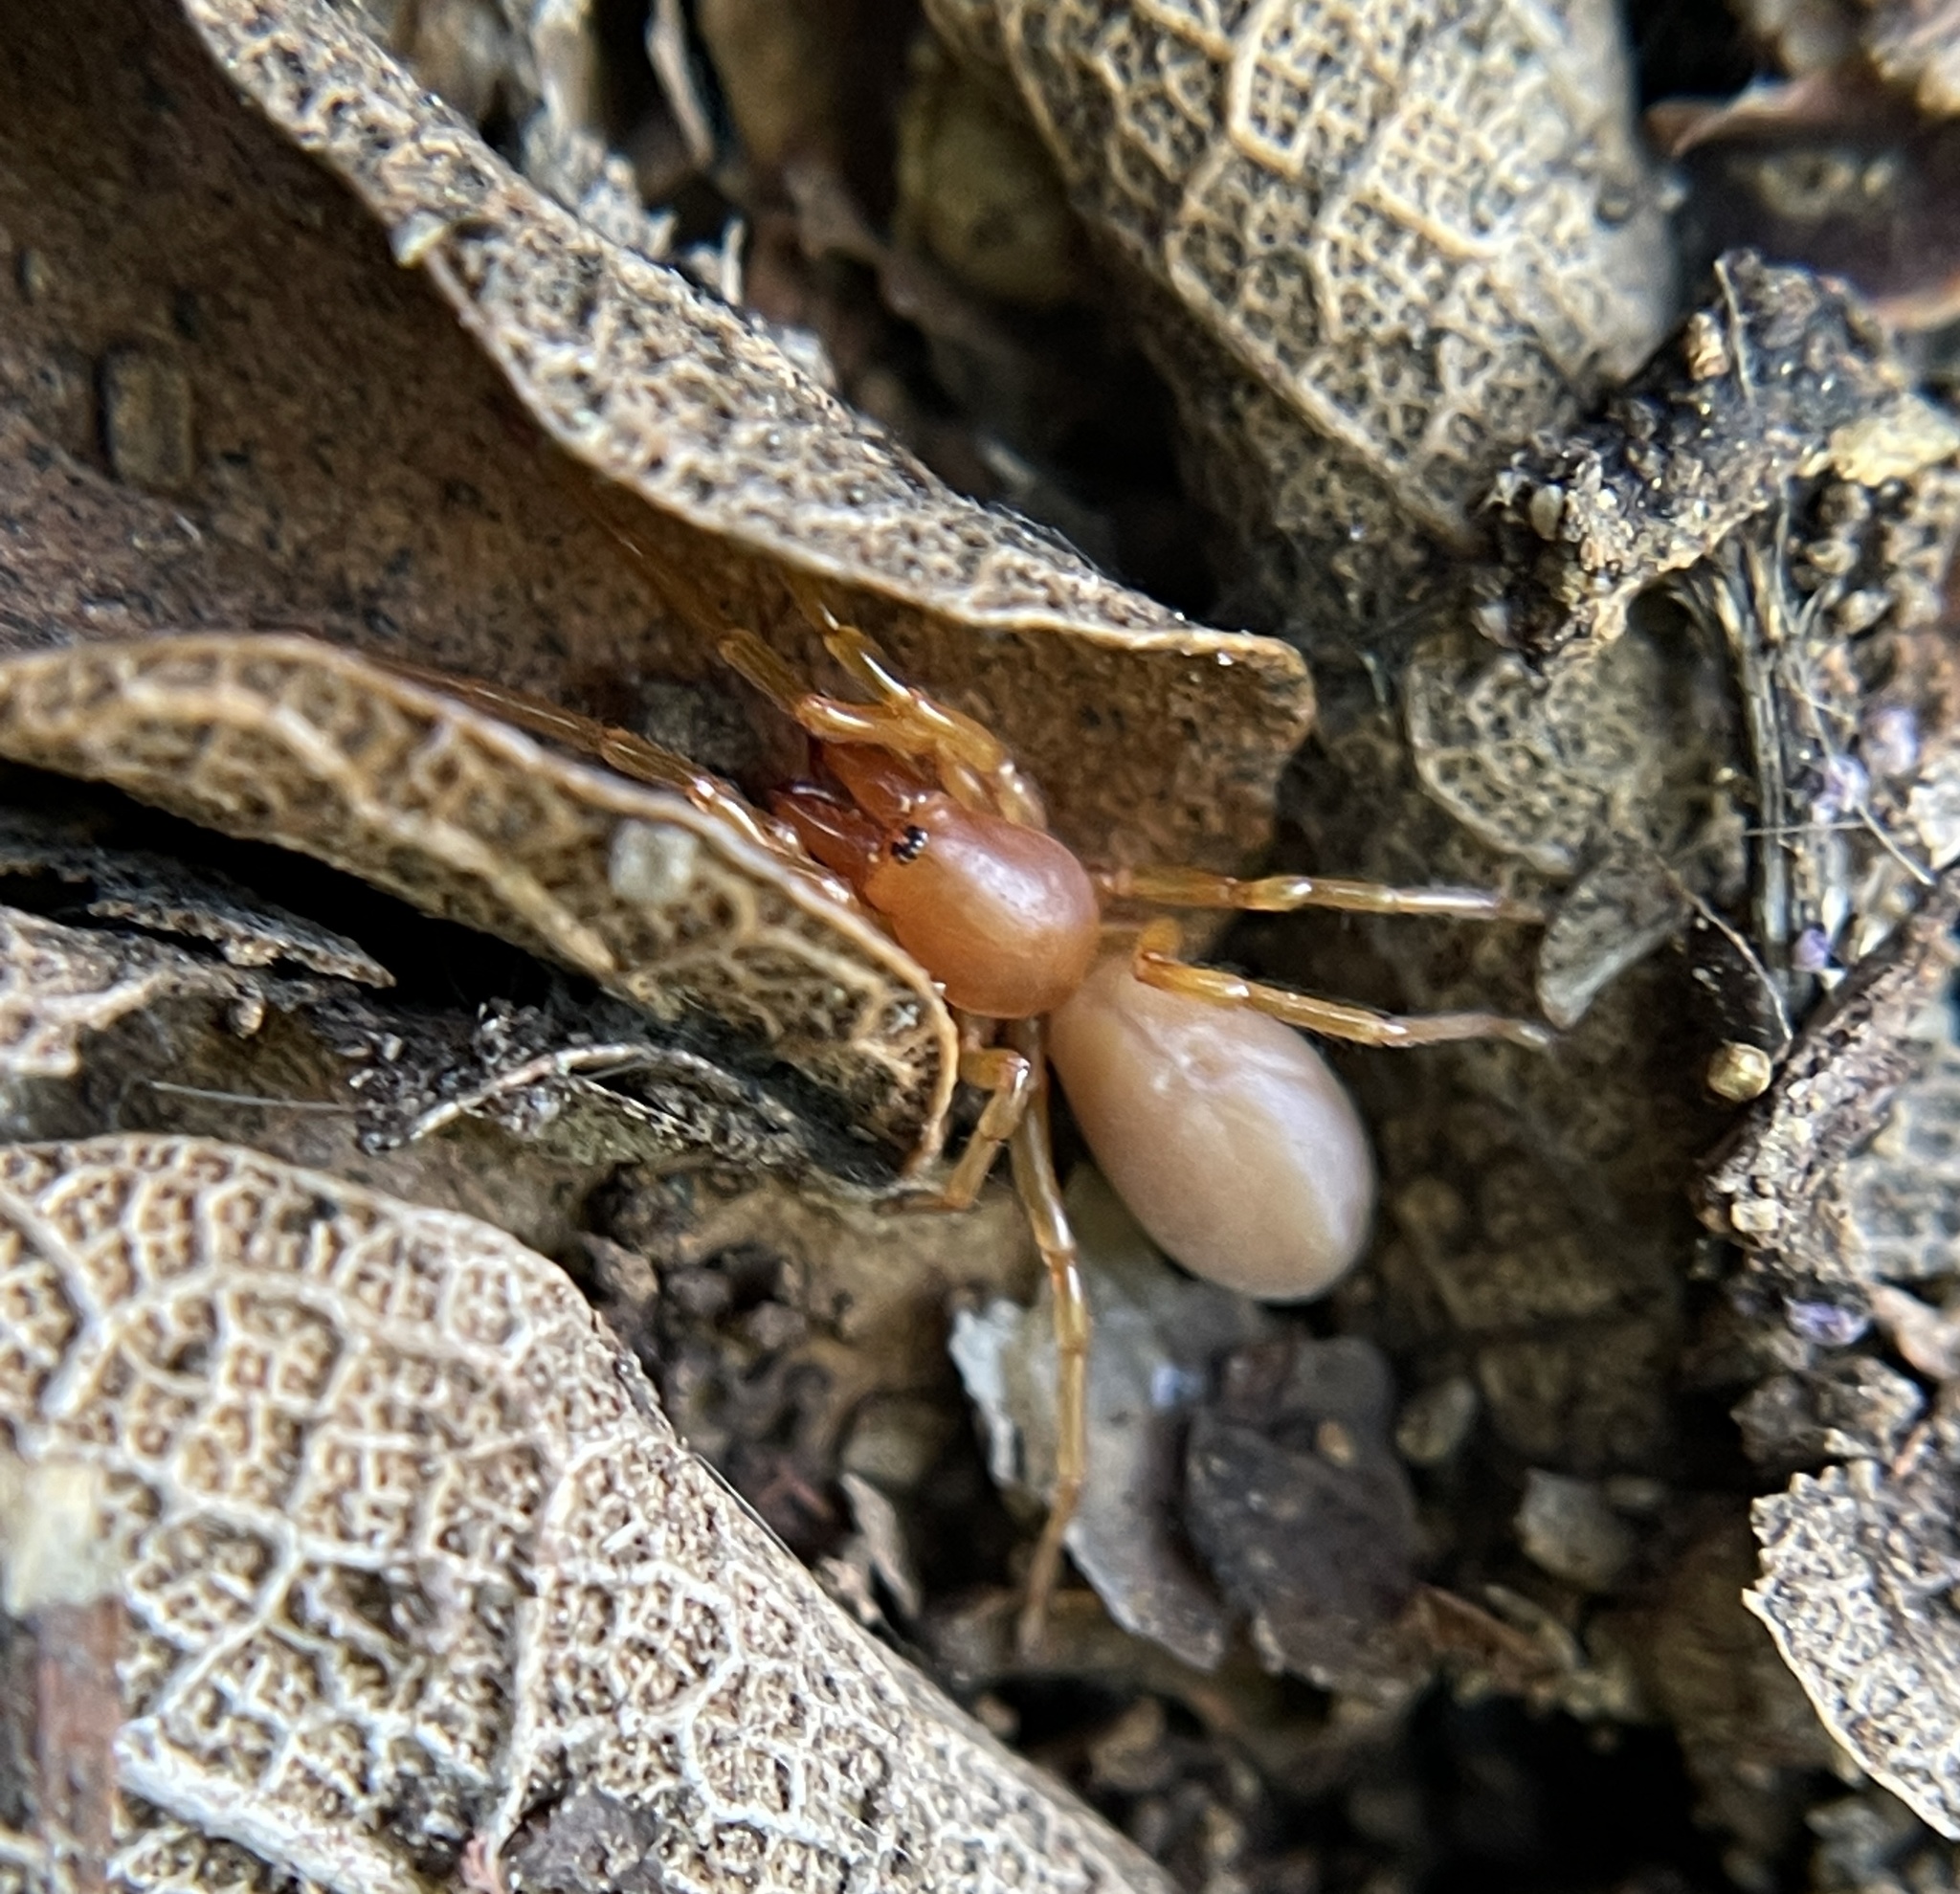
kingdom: Animalia
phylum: Arthropoda
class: Arachnida
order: Araneae
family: Dysderidae
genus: Dysdera
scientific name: Dysdera crocata
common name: Woodlouse spider
